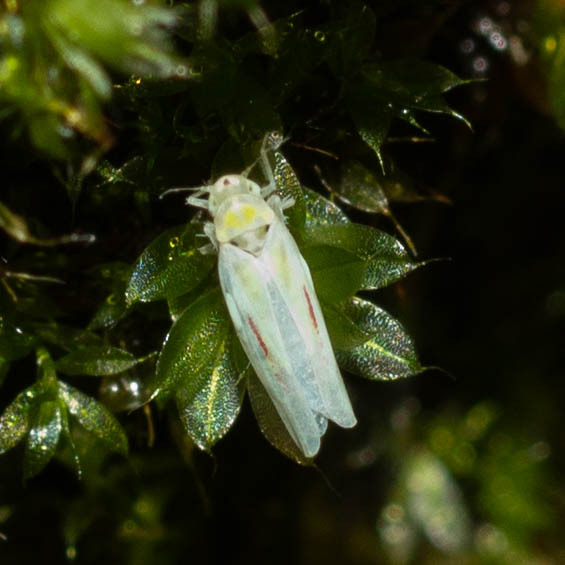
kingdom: Animalia
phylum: Arthropoda
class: Insecta
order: Hemiptera
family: Cicadellidae
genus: Zygina
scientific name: Zygina eburnea
